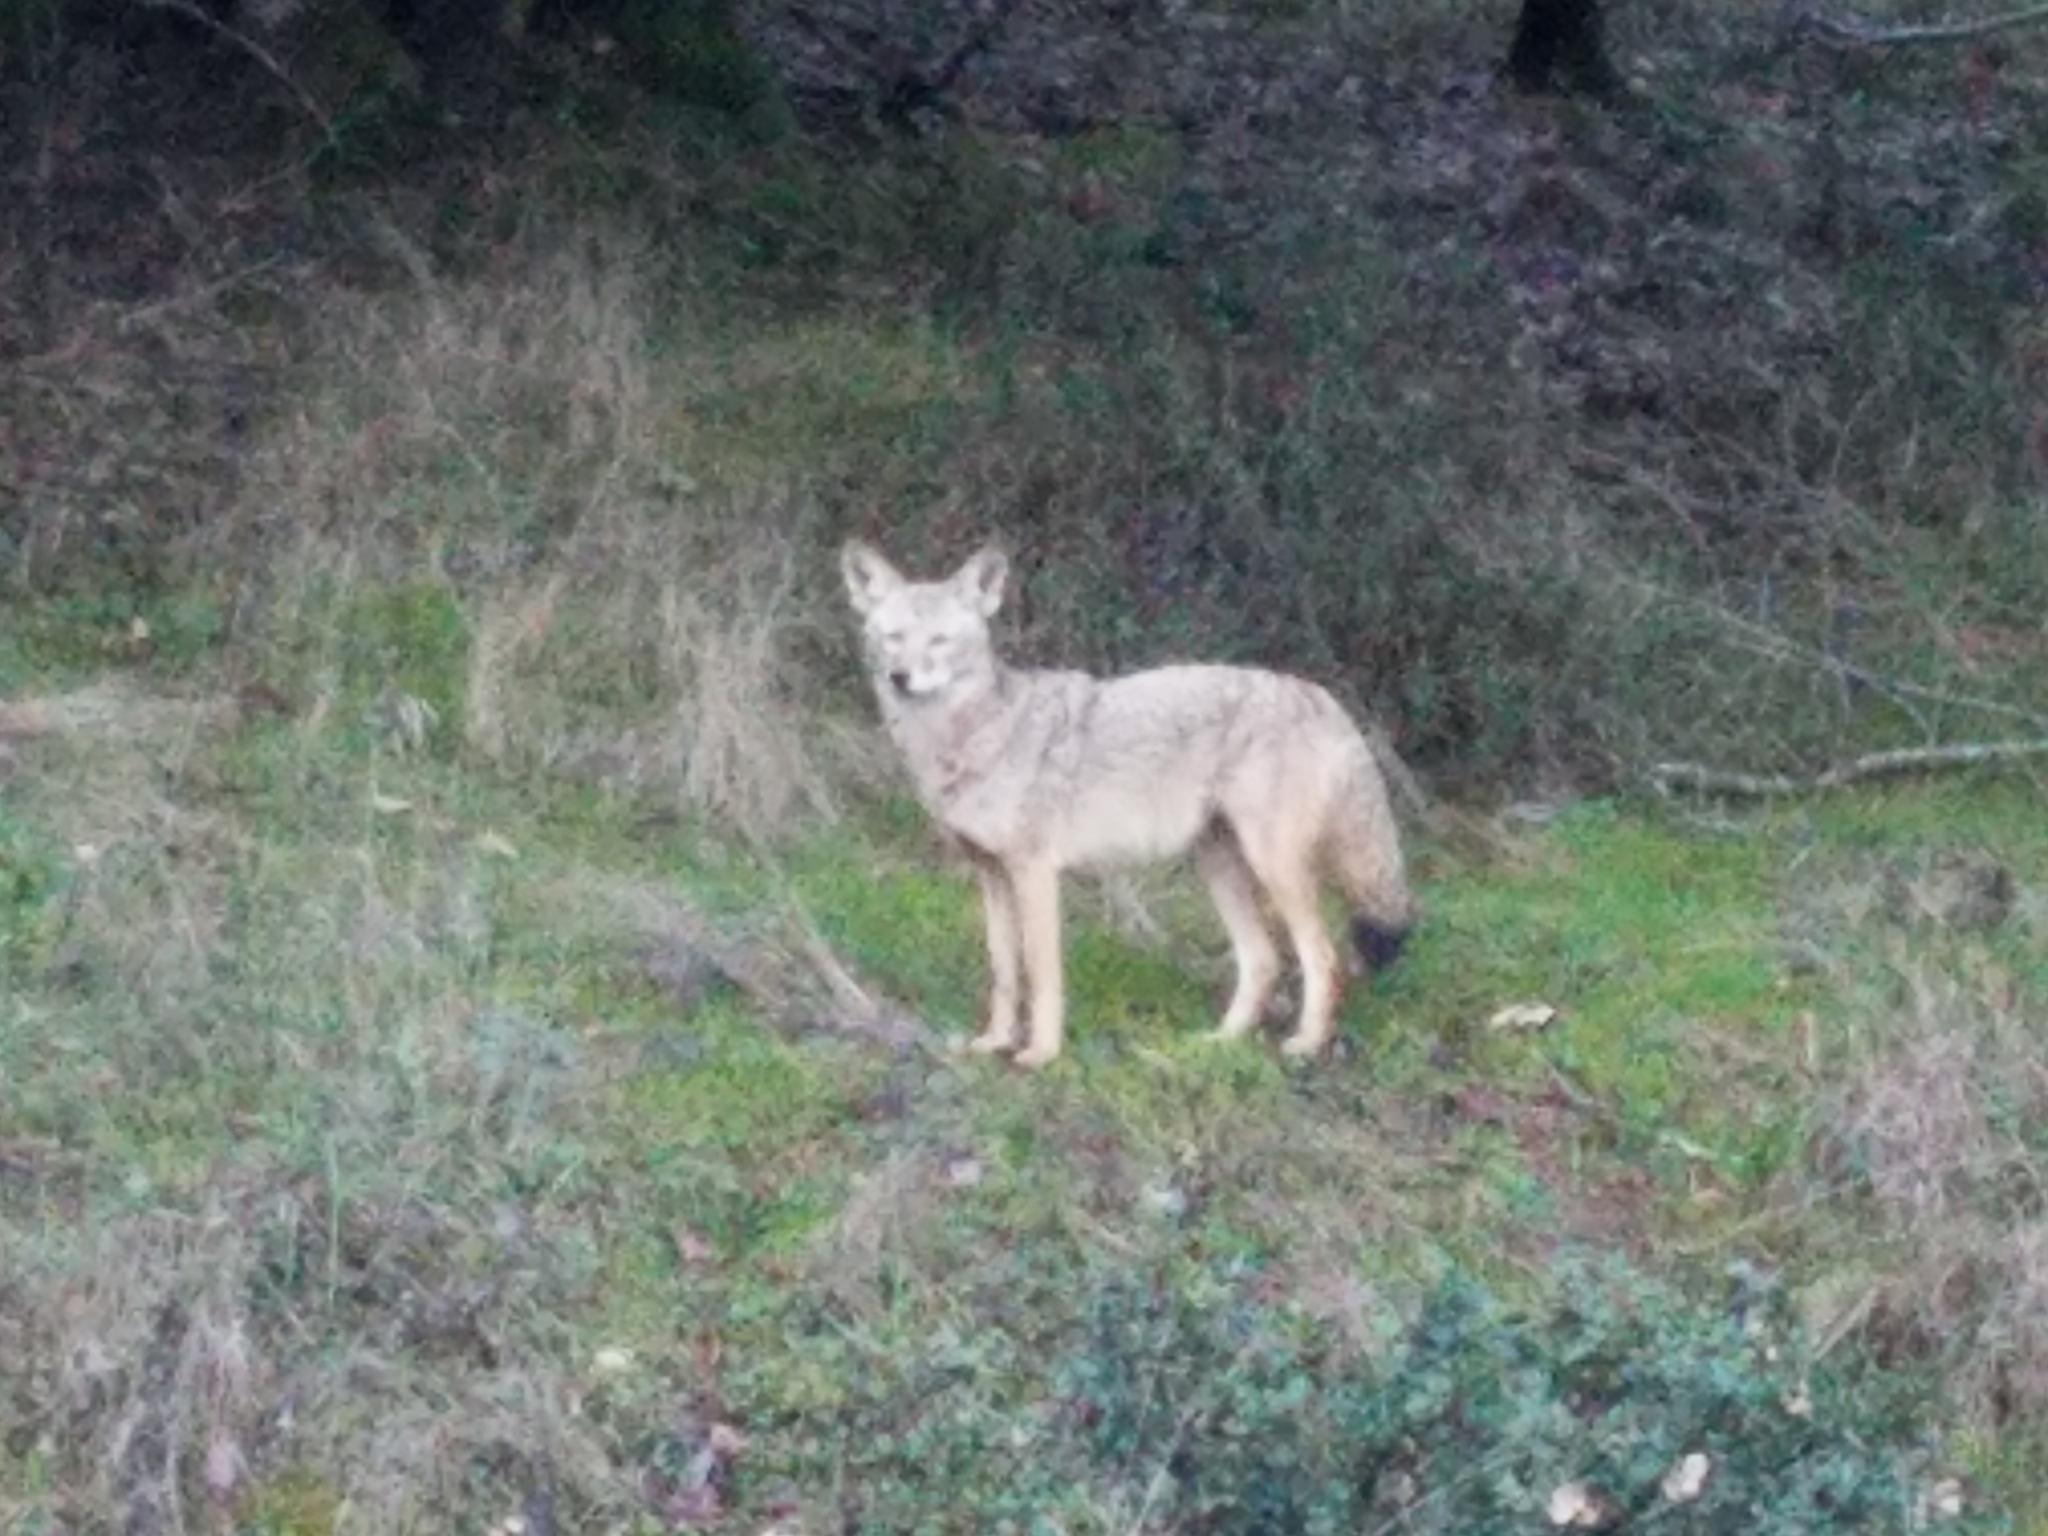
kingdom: Animalia
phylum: Chordata
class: Mammalia
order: Carnivora
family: Canidae
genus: Canis
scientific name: Canis latrans
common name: Coyote
